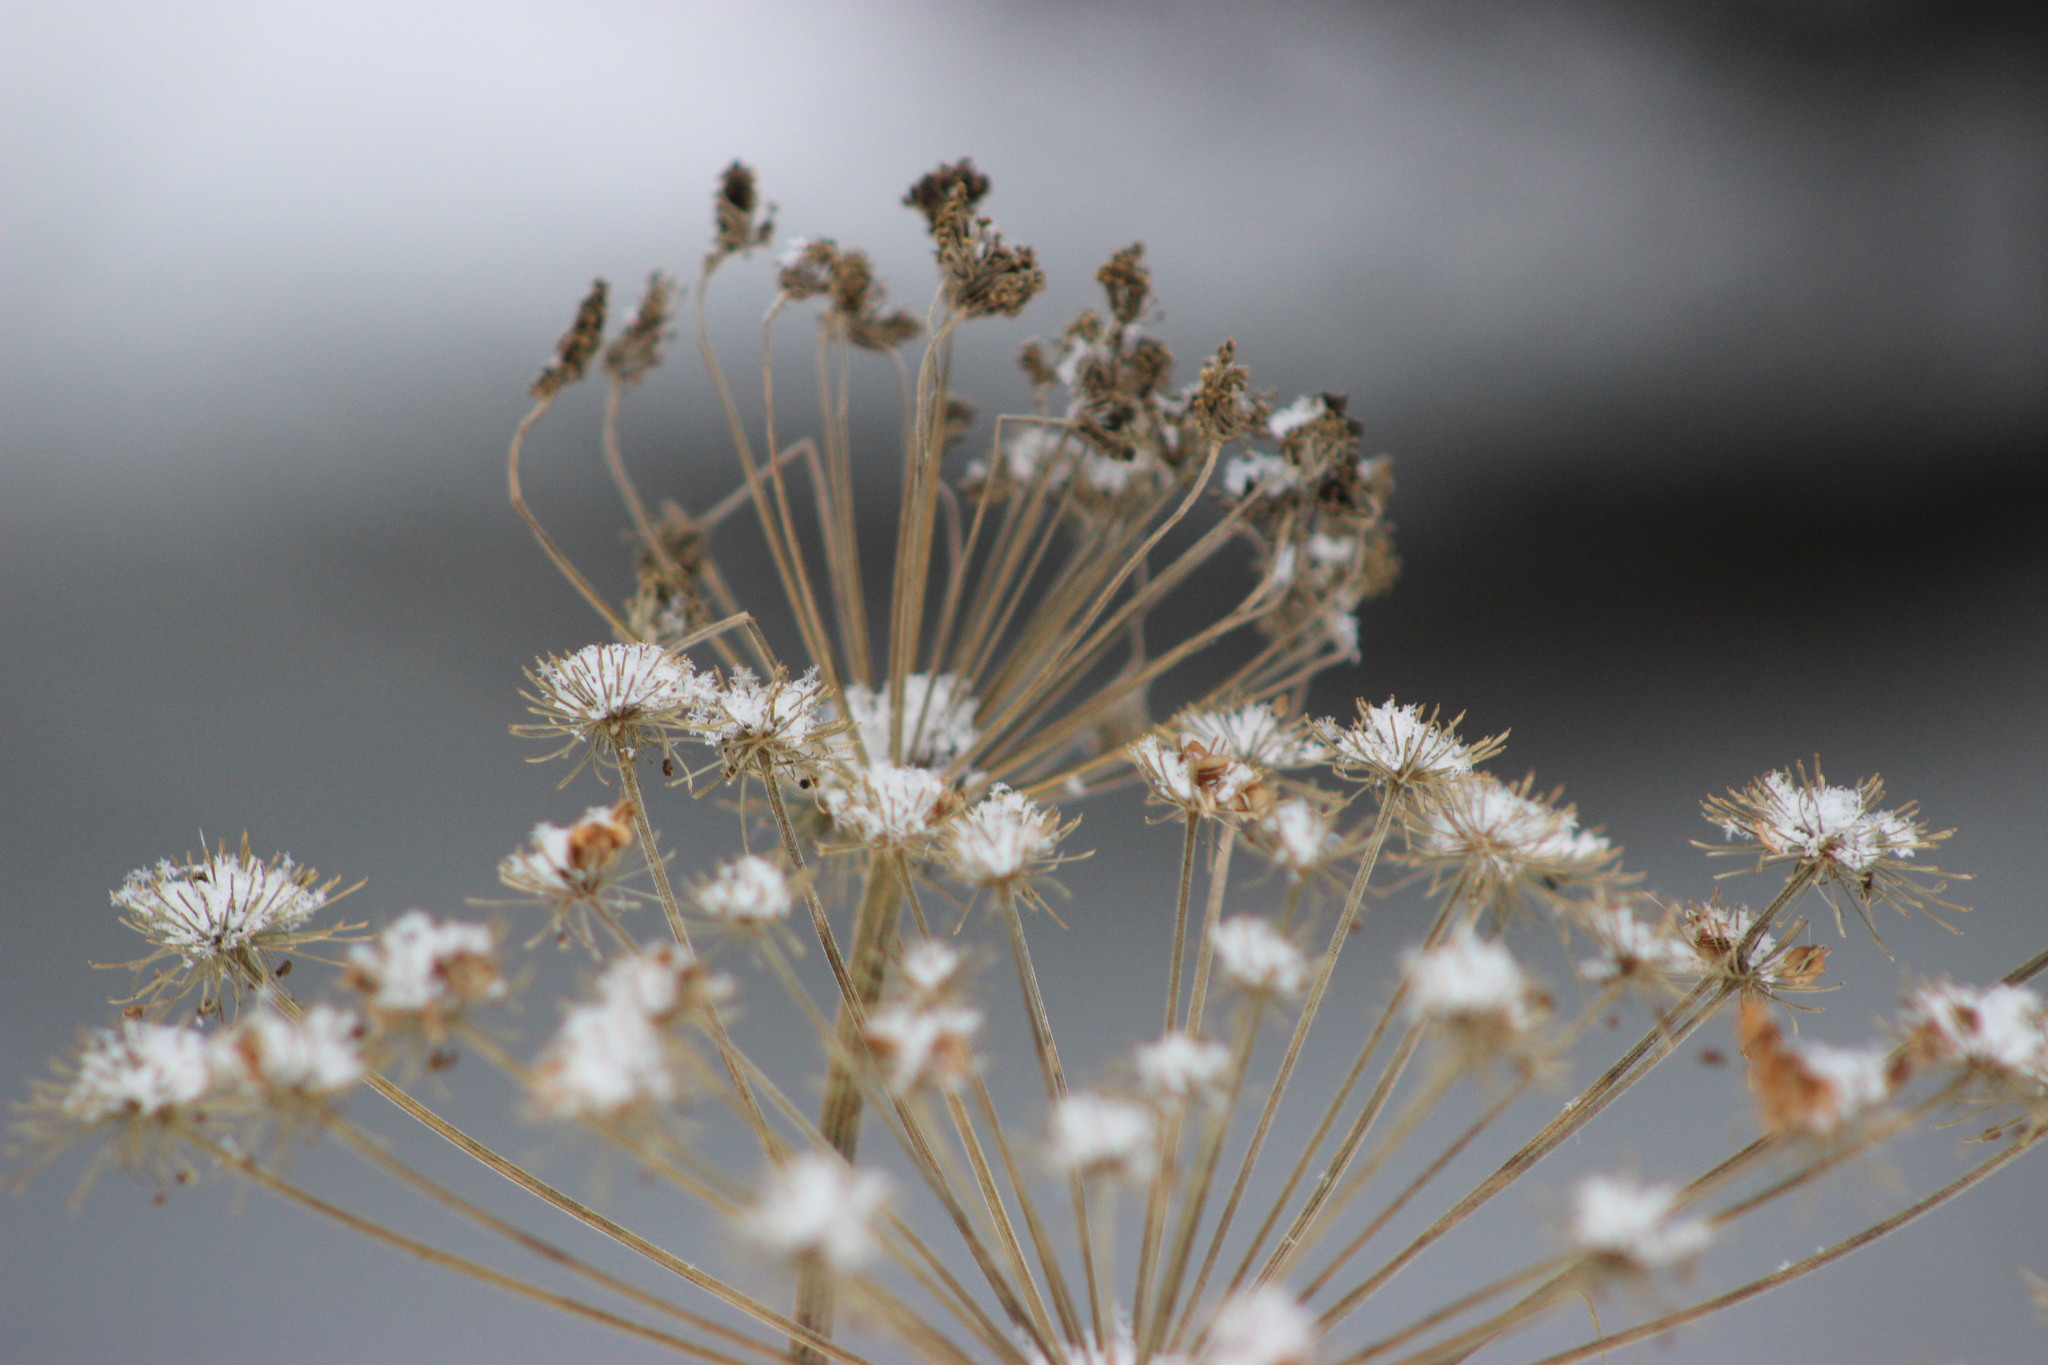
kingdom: Plantae
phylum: Tracheophyta
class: Magnoliopsida
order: Apiales
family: Apiaceae
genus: Angelica
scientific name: Angelica sylvestris
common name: Wild angelica
